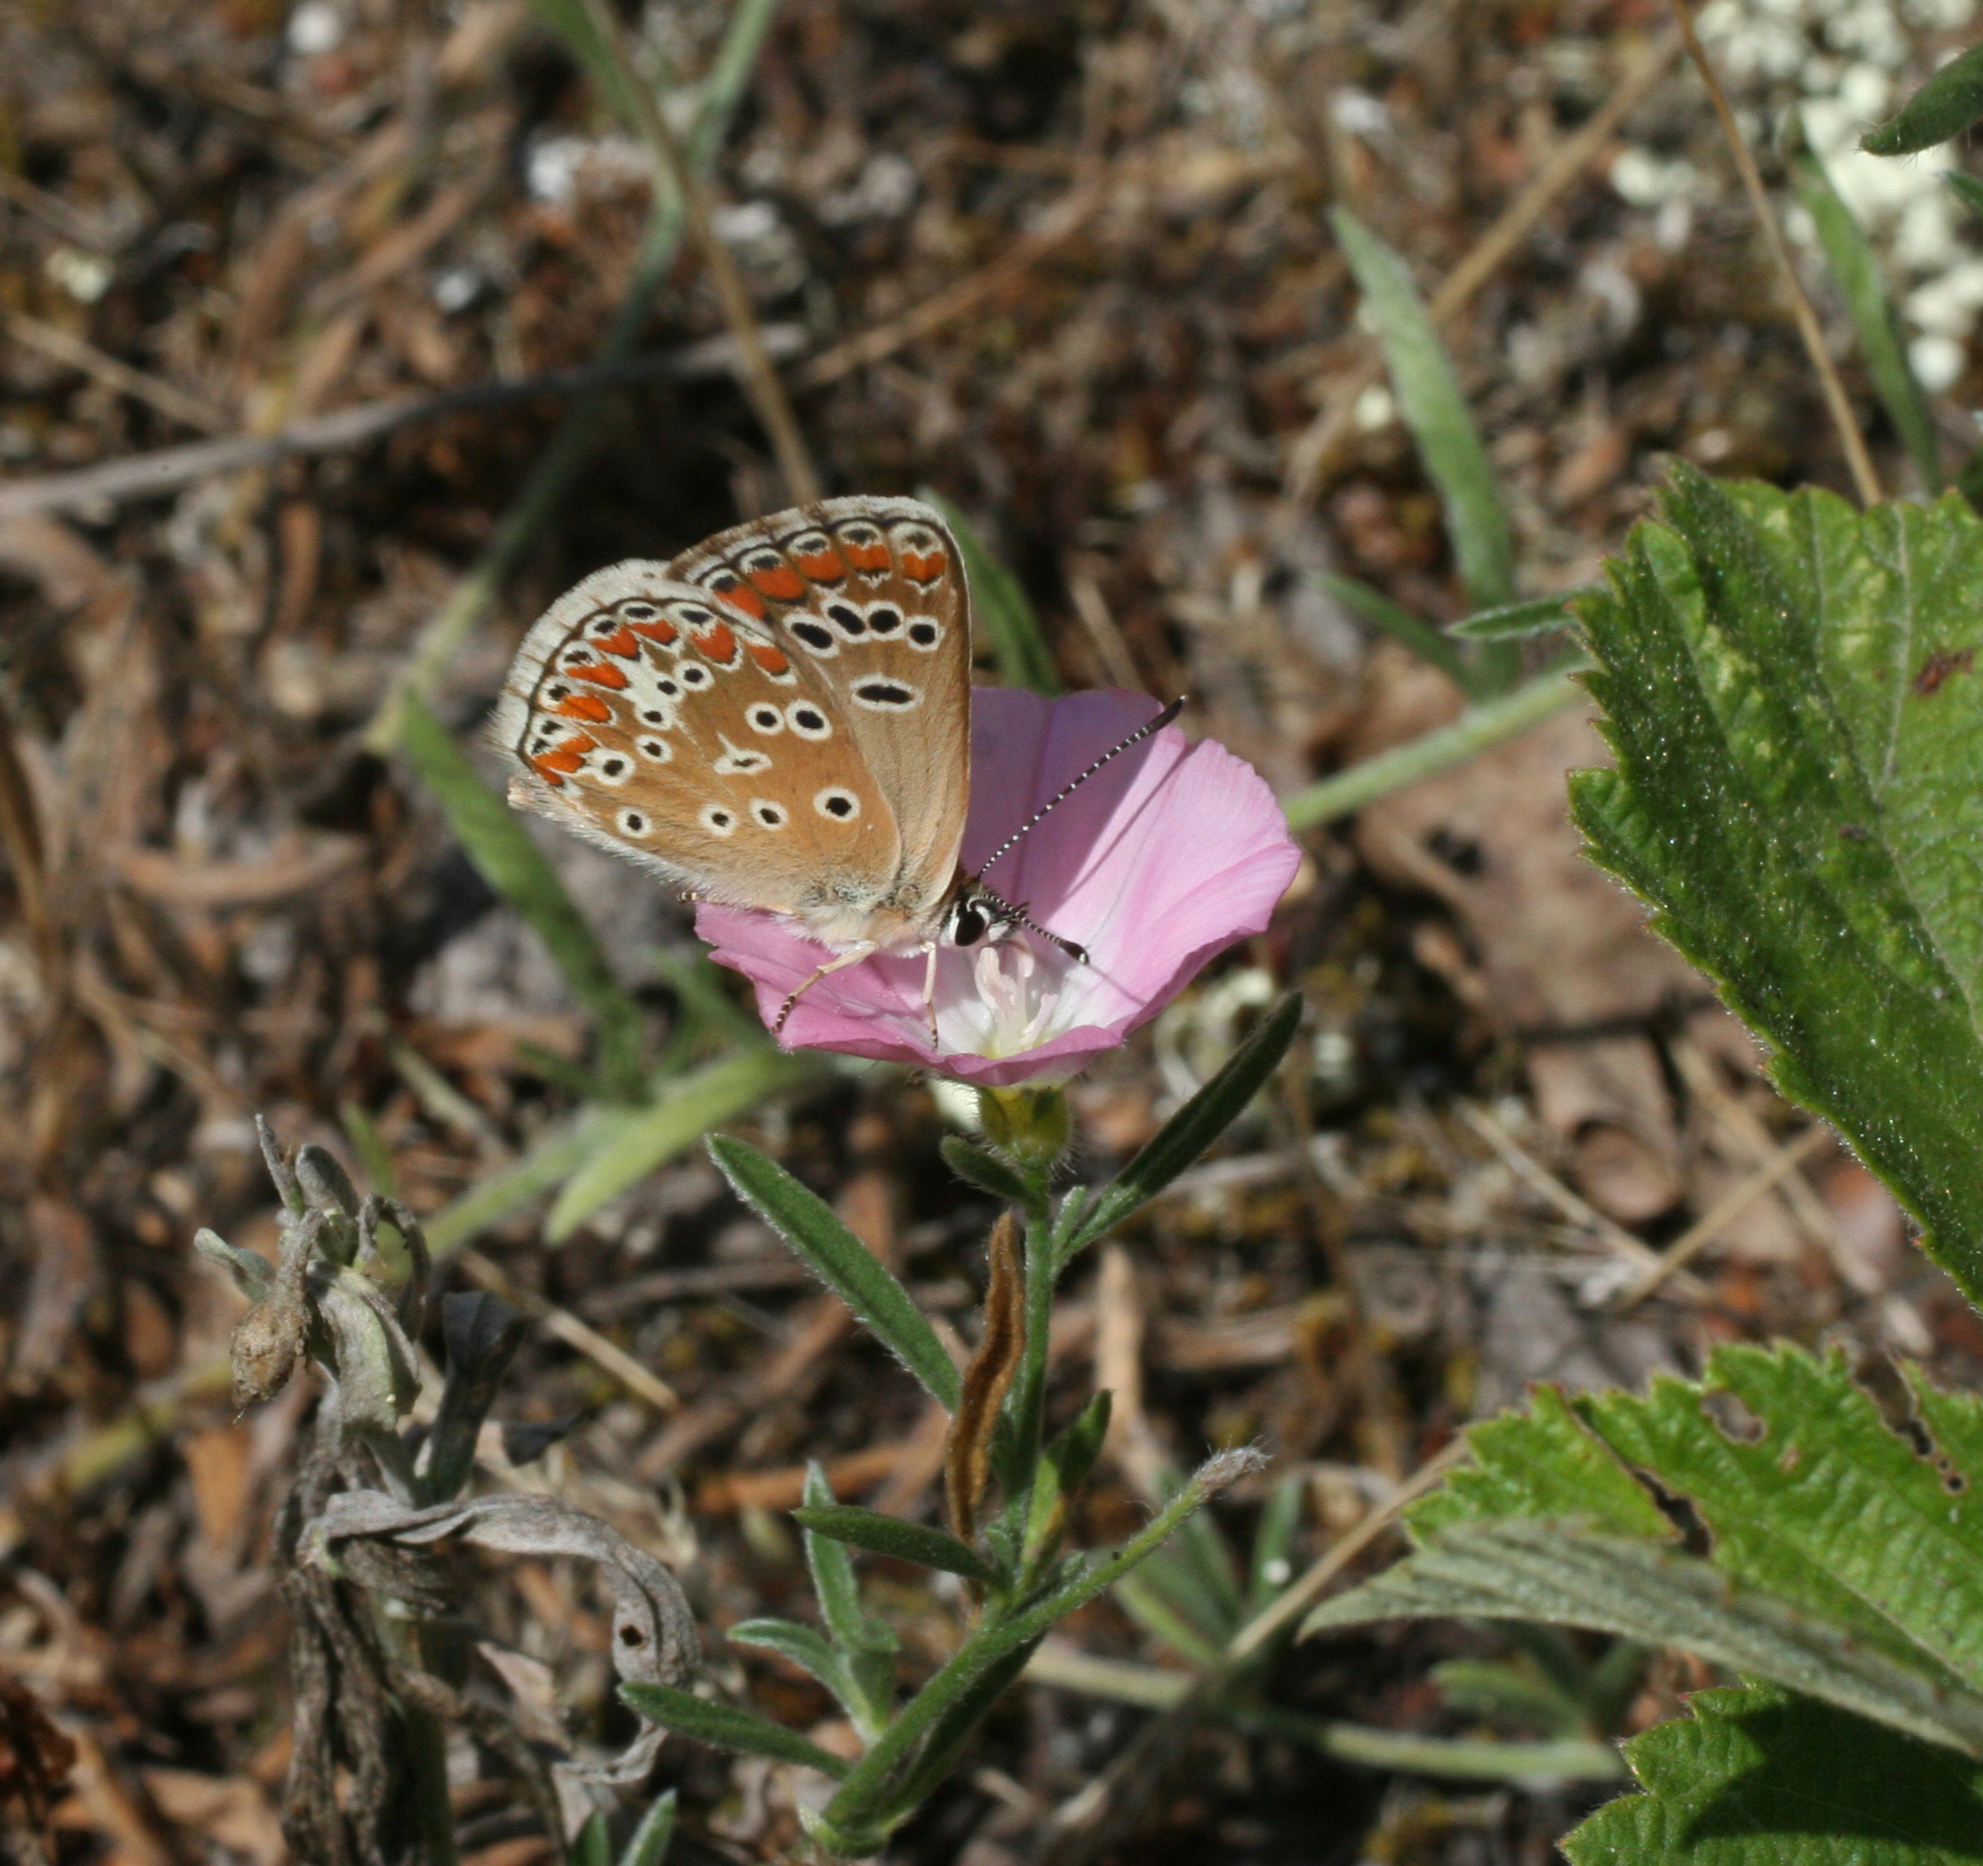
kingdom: Animalia
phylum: Arthropoda
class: Insecta
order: Lepidoptera
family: Lycaenidae
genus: Aricia
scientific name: Aricia agestis
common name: Brown argus
